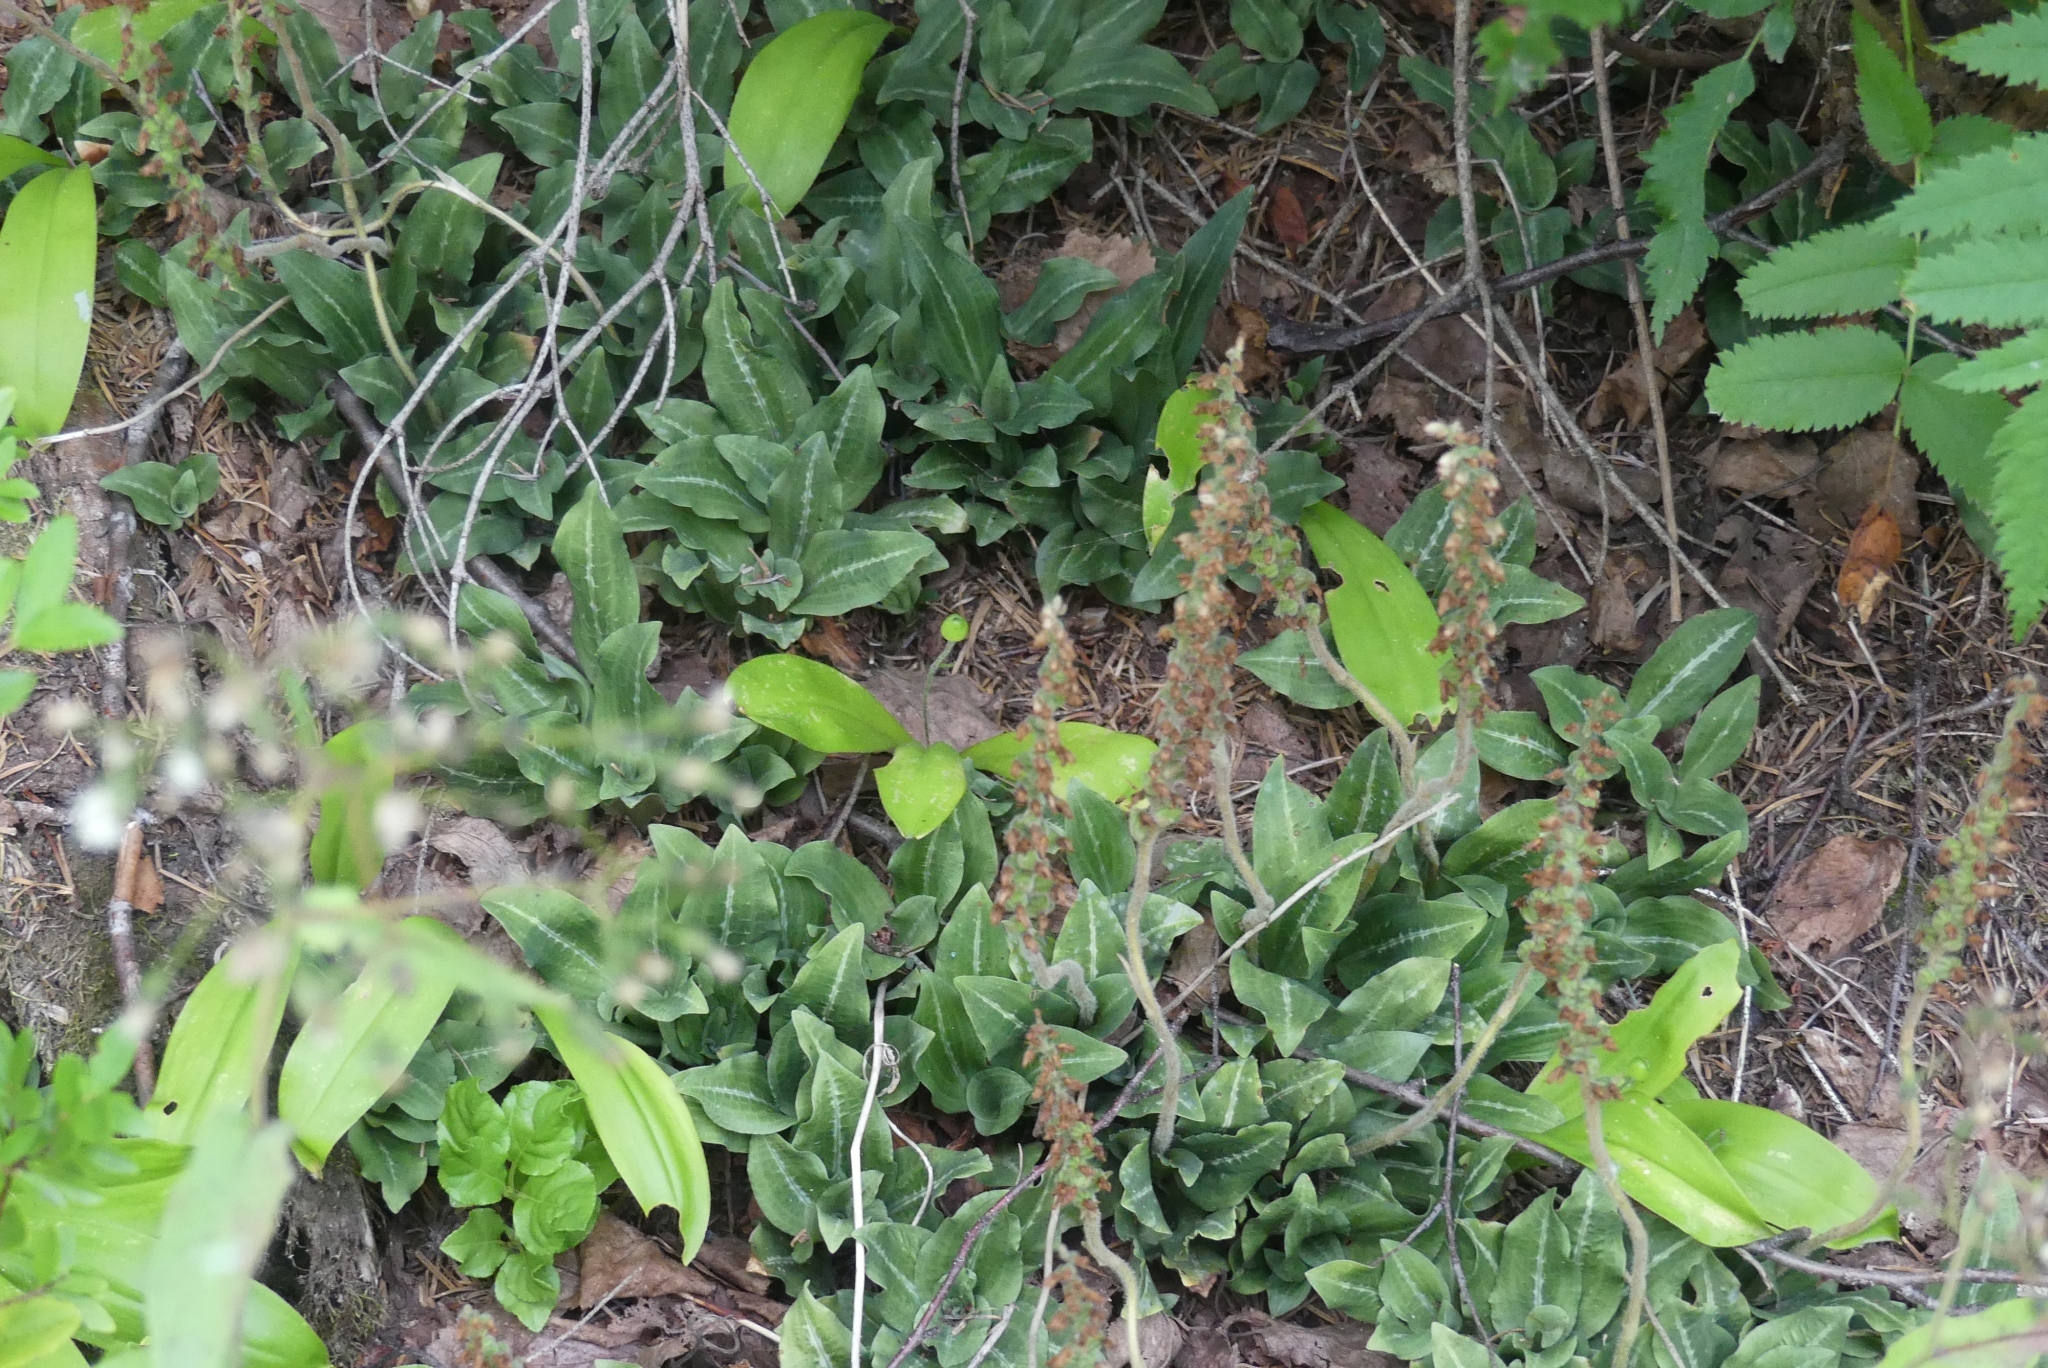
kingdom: Plantae
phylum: Tracheophyta
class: Liliopsida
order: Asparagales
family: Orchidaceae
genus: Goodyera
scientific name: Goodyera oblongifolia
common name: Giant rattlesnake-plantain
